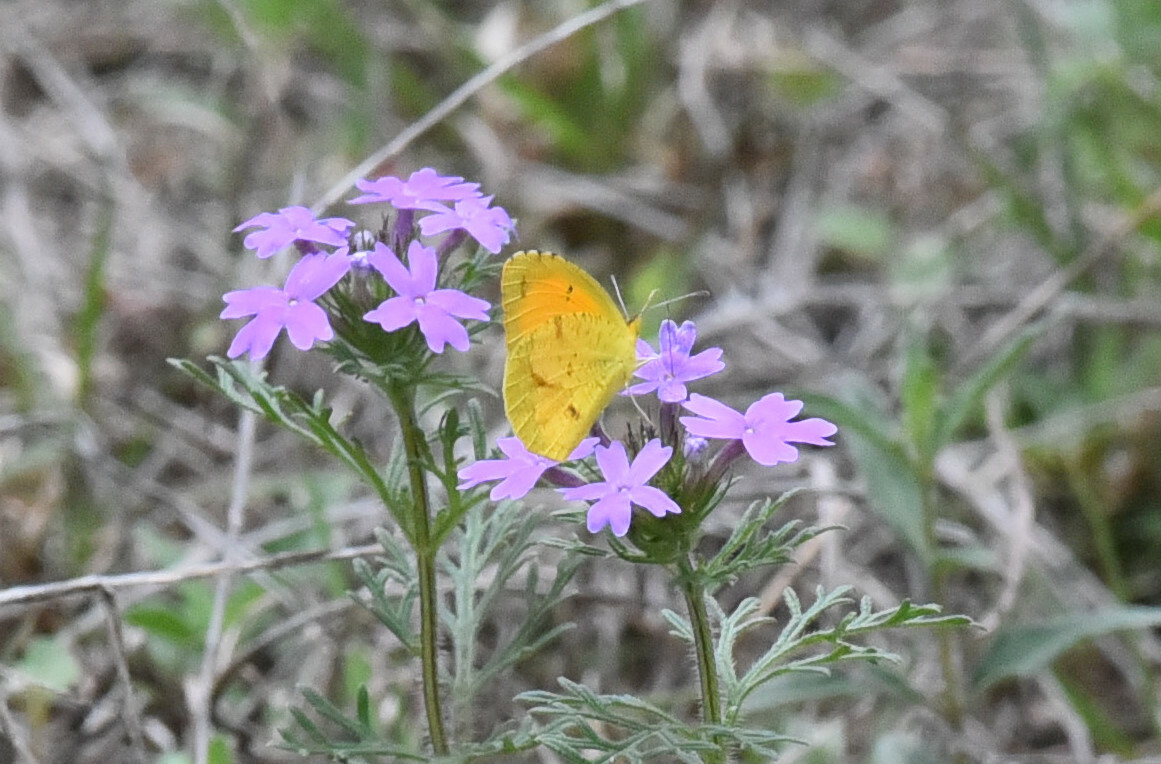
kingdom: Animalia
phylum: Arthropoda
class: Insecta
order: Lepidoptera
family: Pieridae
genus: Abaeis
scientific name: Abaeis nicippe
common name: Sleepy orange
